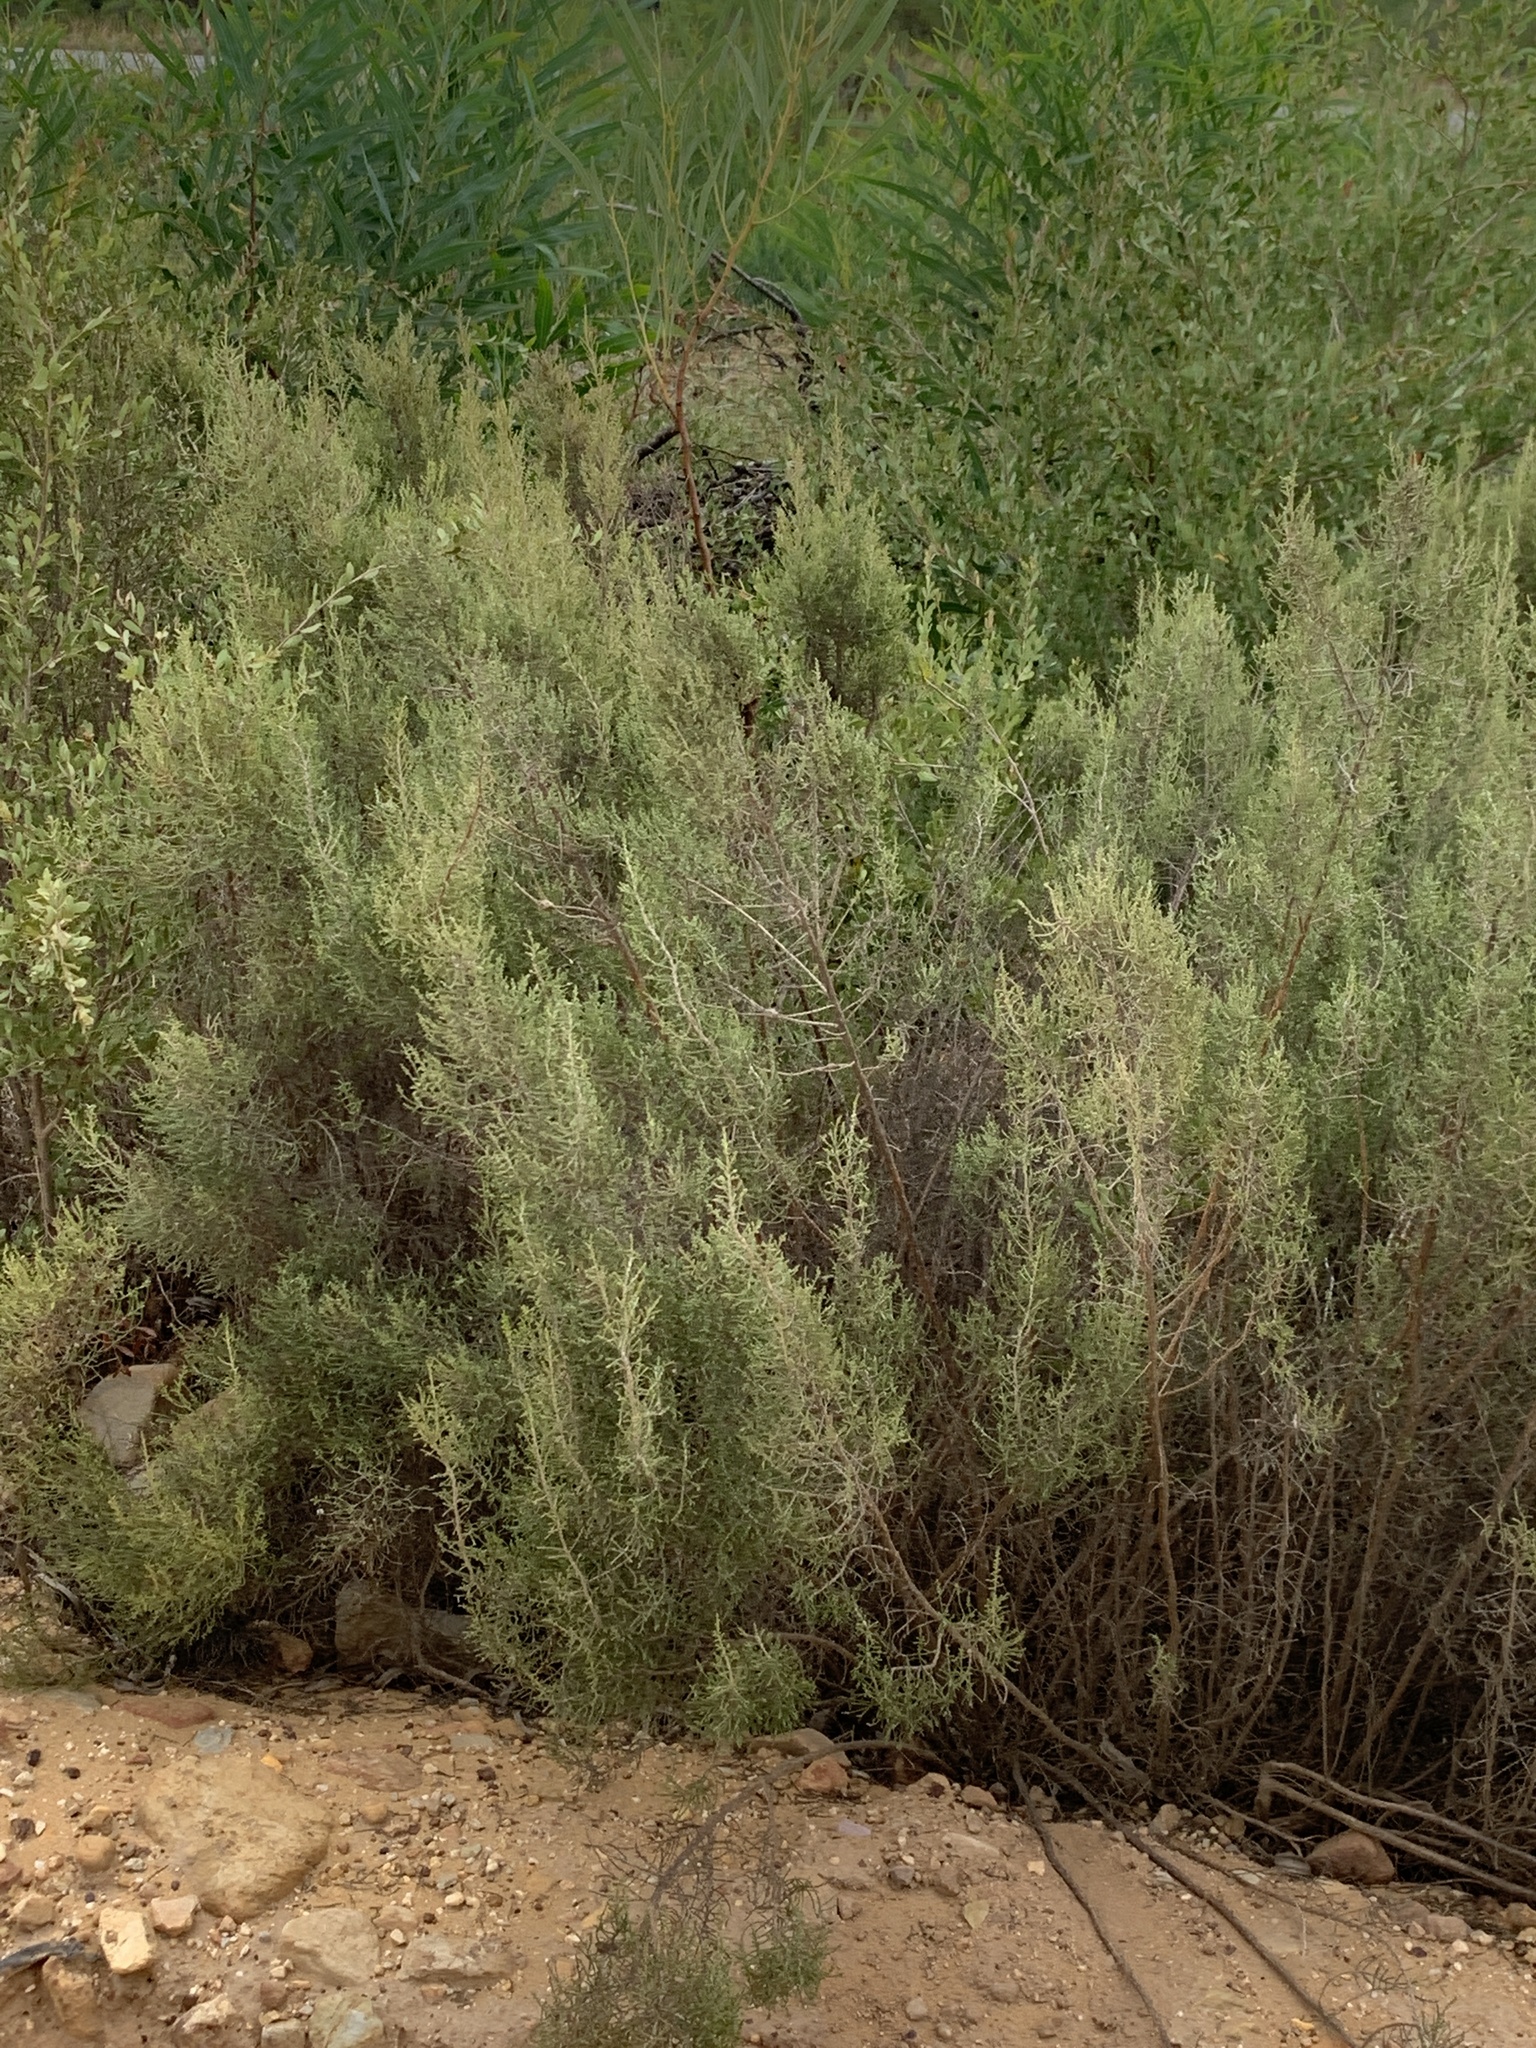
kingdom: Plantae
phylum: Tracheophyta
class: Magnoliopsida
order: Asterales
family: Asteraceae
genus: Dicerothamnus
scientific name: Dicerothamnus rhinocerotis
